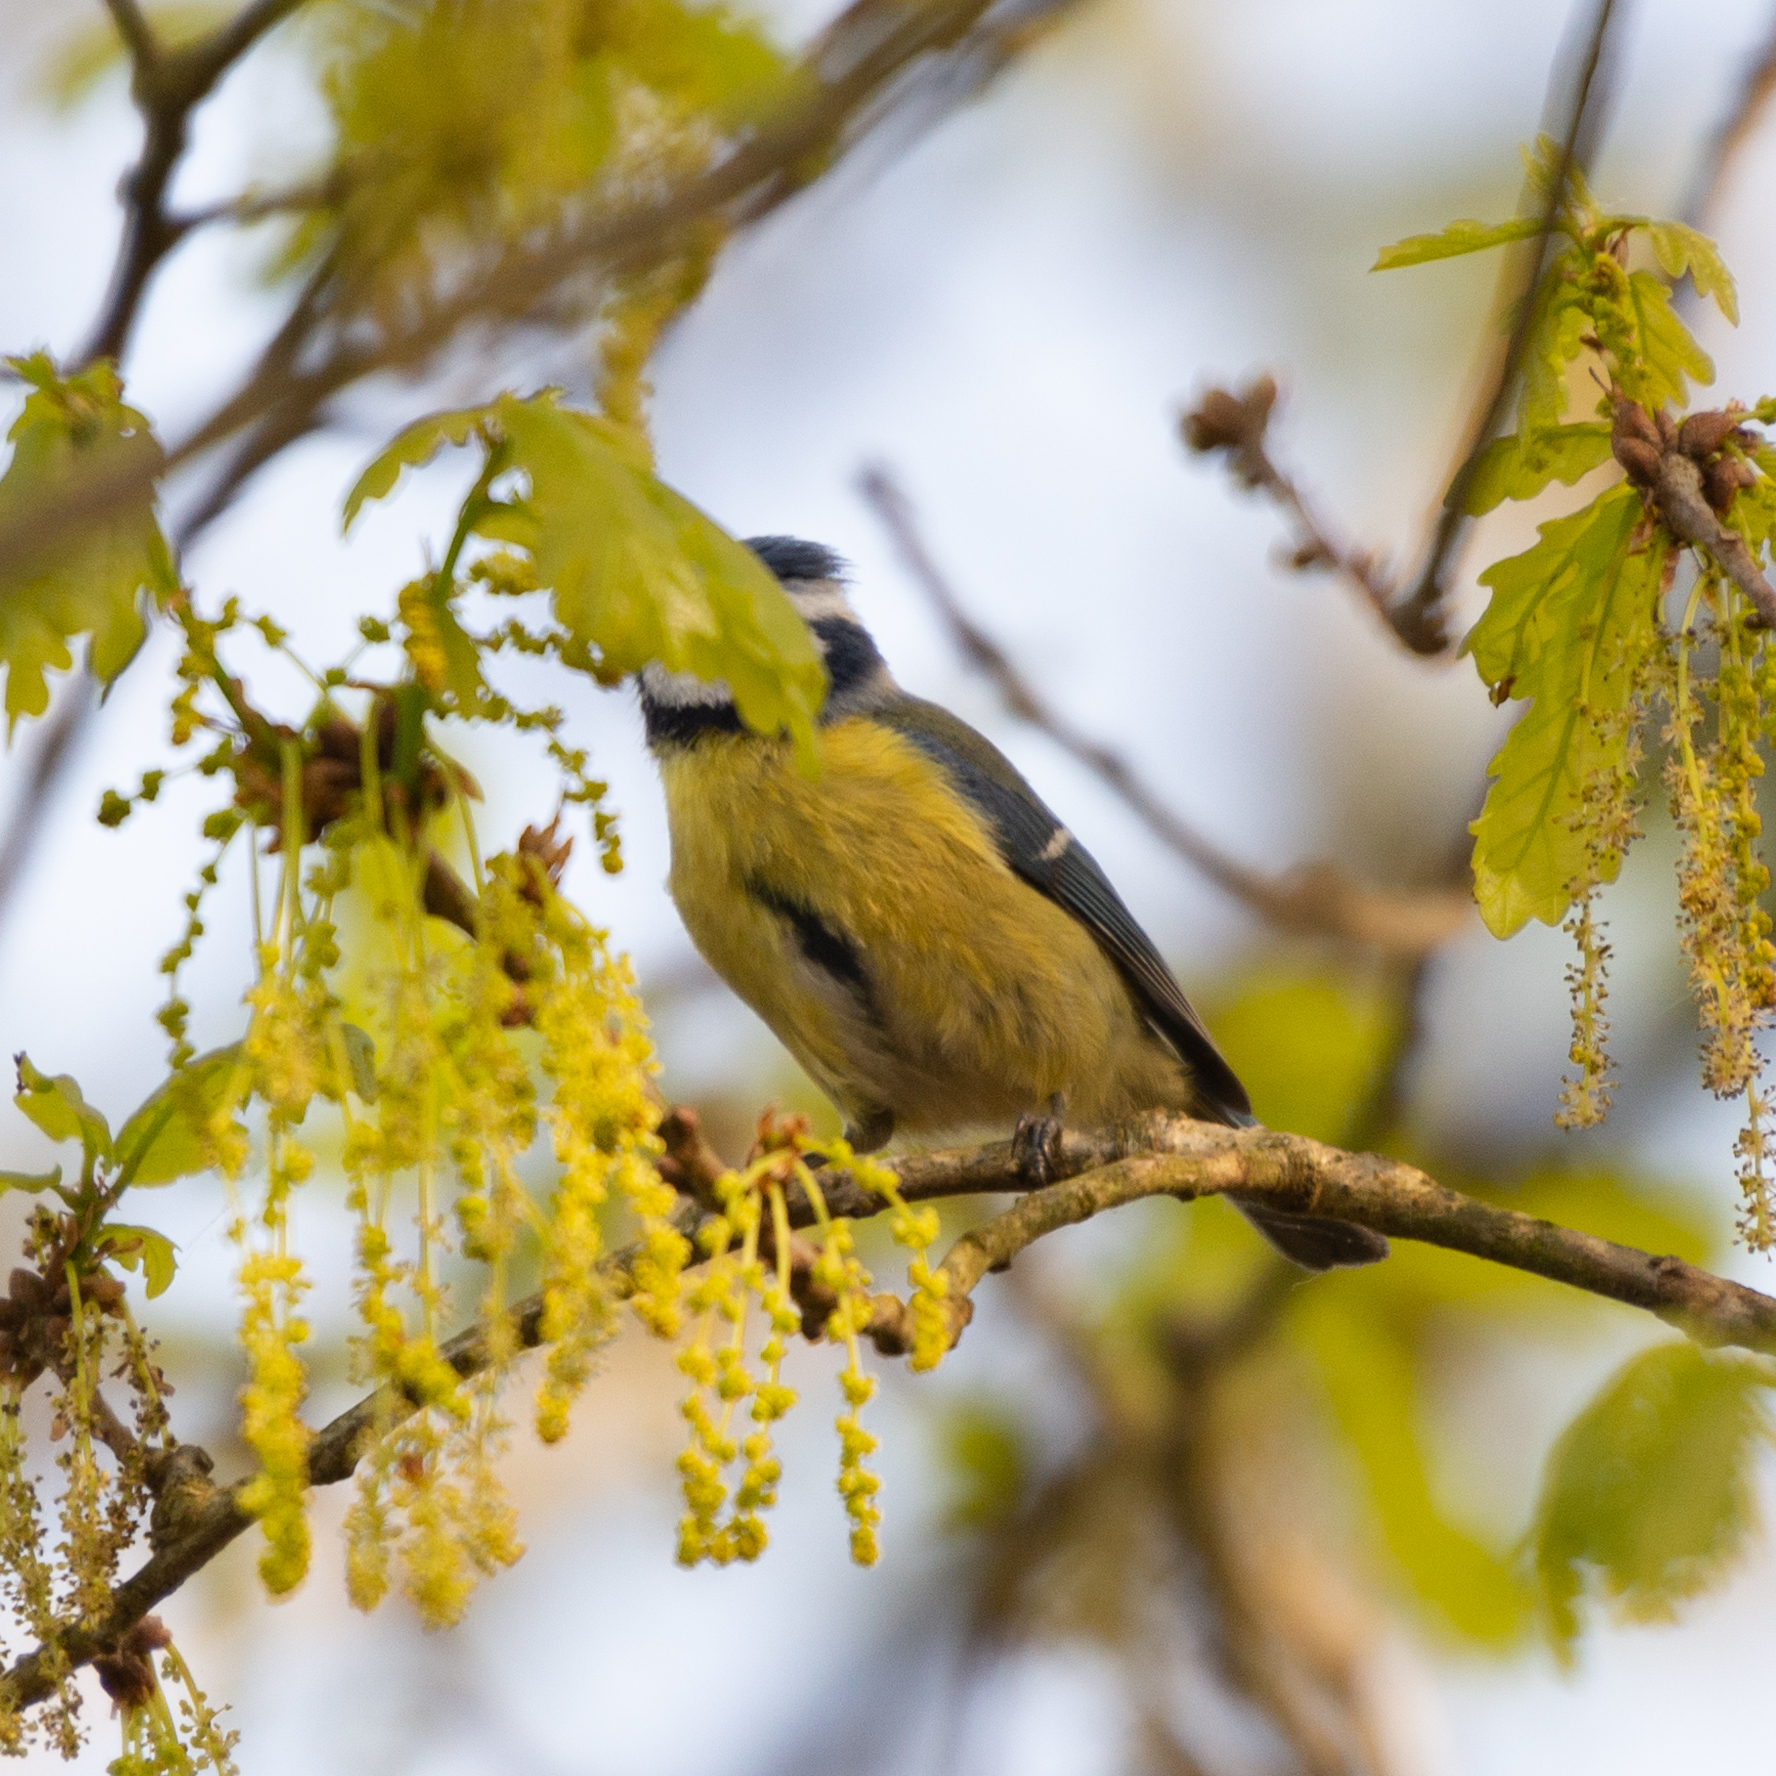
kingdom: Animalia
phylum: Chordata
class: Aves
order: Passeriformes
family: Paridae
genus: Cyanistes
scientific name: Cyanistes caeruleus
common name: Eurasian blue tit
